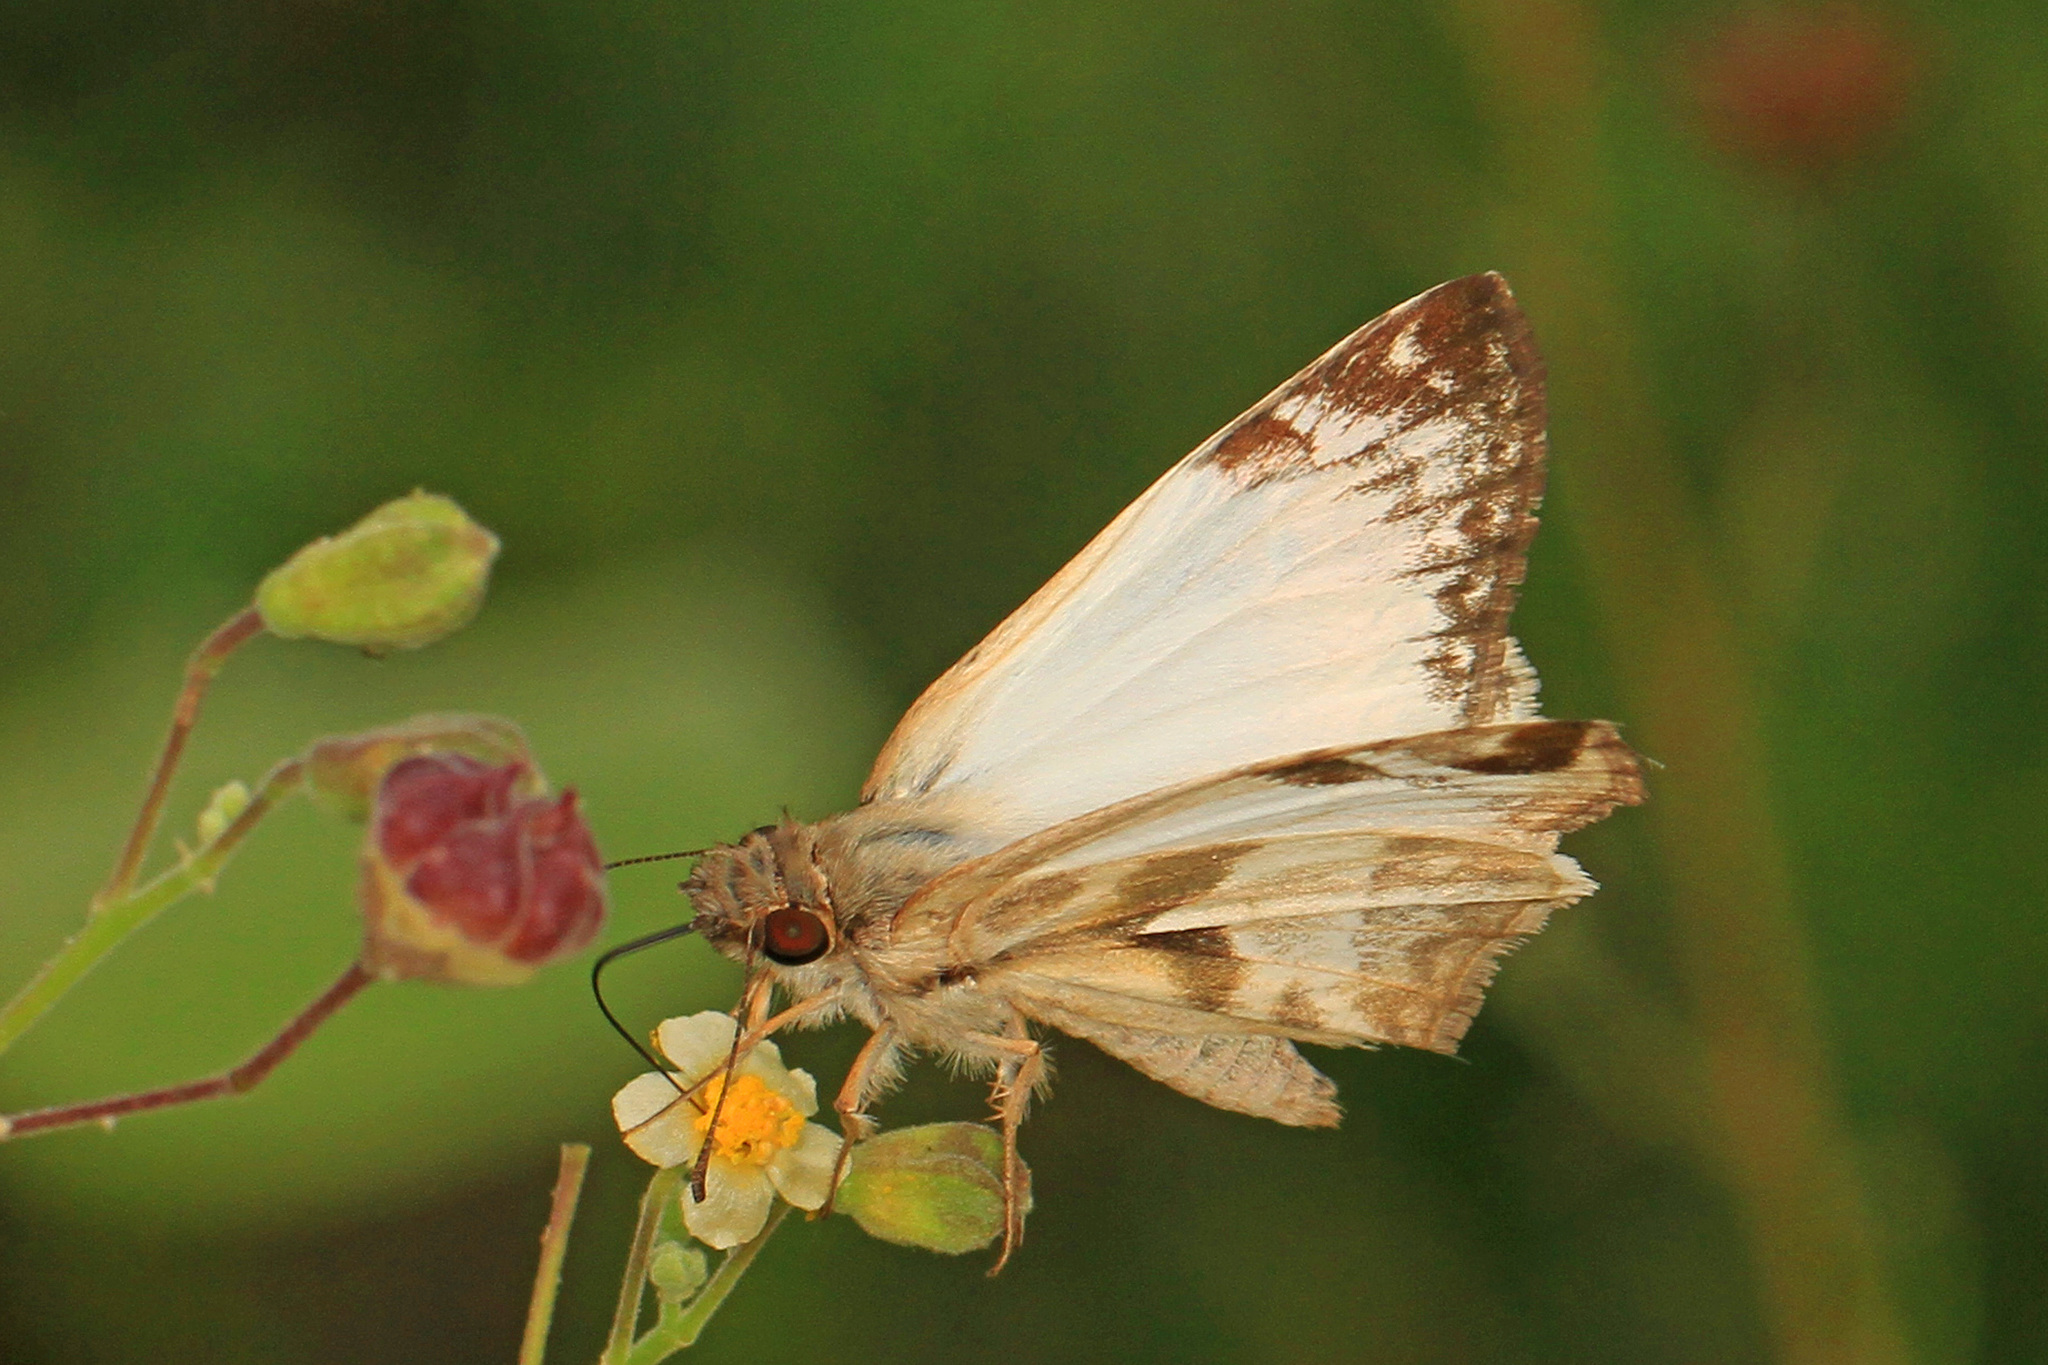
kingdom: Animalia
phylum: Arthropoda
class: Insecta
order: Lepidoptera
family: Hesperiidae
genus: Heliopetes
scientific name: Heliopetes laviana
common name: Laviana white-skipper
